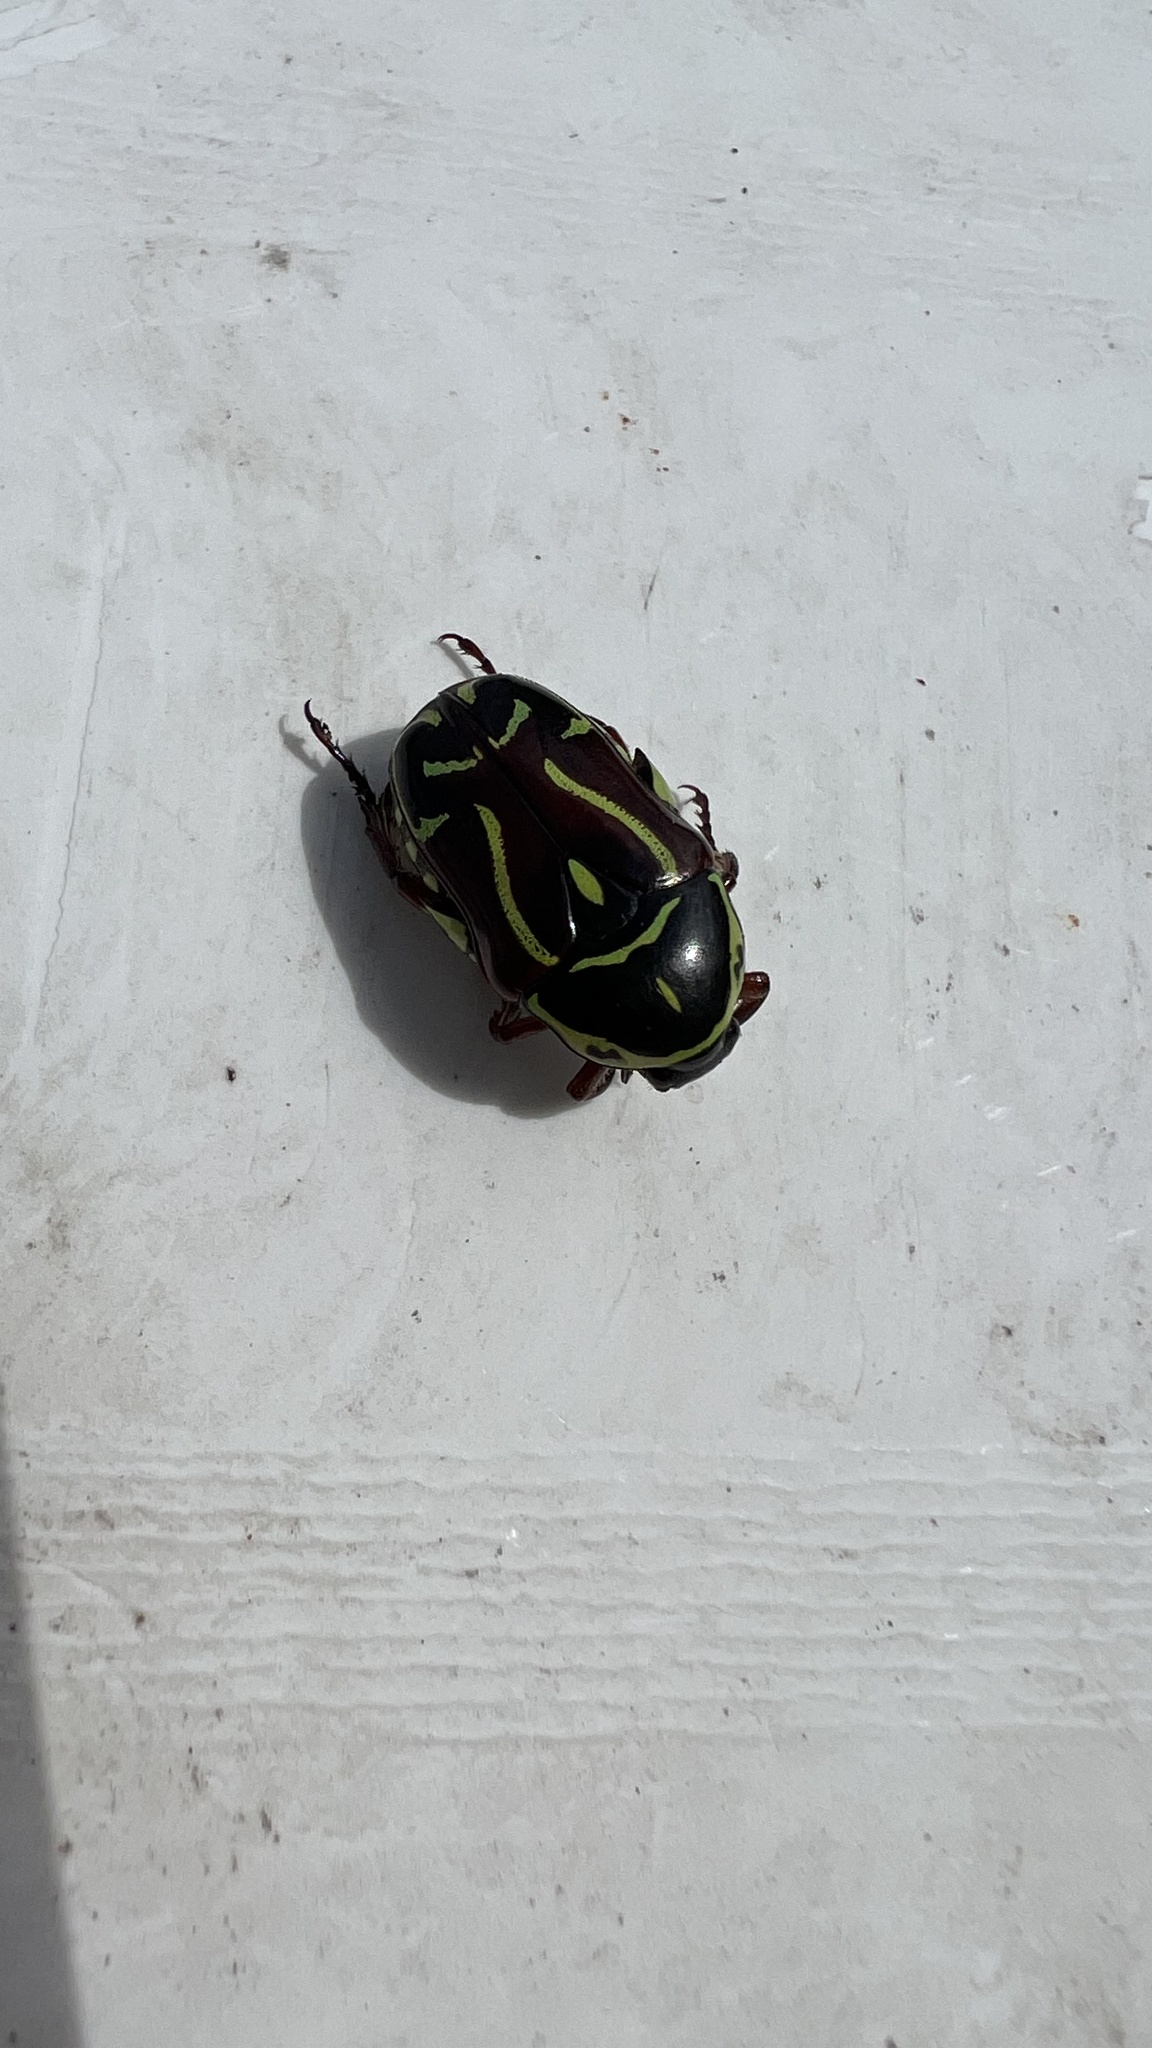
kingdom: Animalia
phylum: Arthropoda
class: Insecta
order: Coleoptera
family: Scarabaeidae
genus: Eupoecila
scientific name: Eupoecila australasiae
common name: Fiddler beetle
